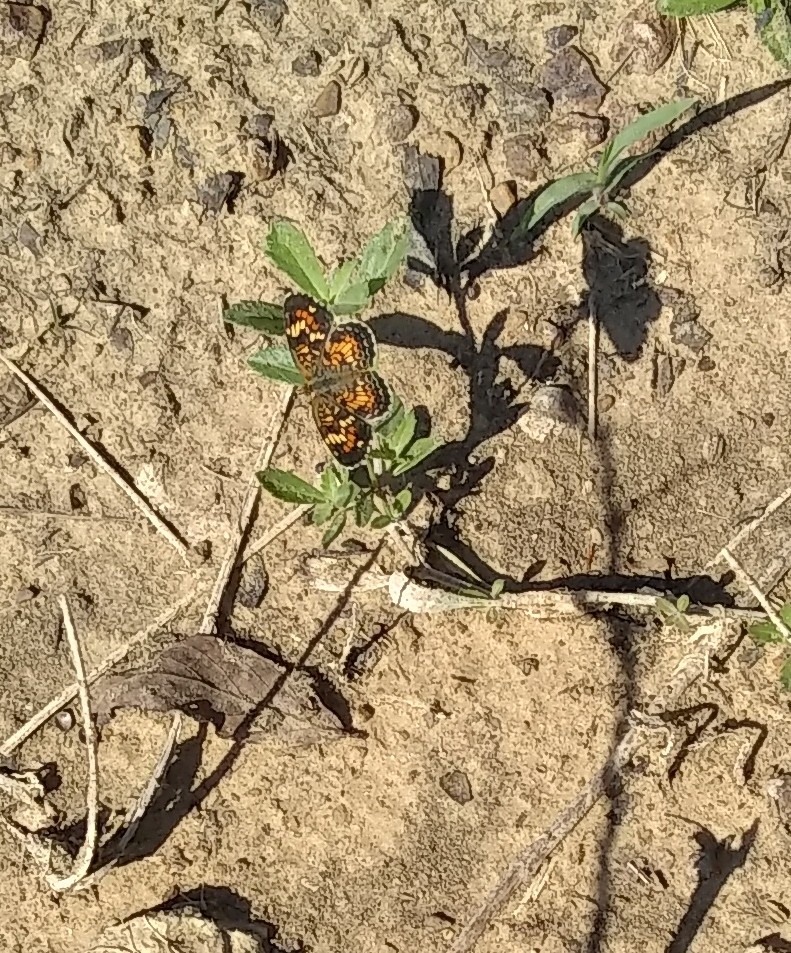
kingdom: Animalia
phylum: Arthropoda
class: Insecta
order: Lepidoptera
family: Nymphalidae
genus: Phyciodes
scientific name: Phyciodes phaon
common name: Phaon crescent
